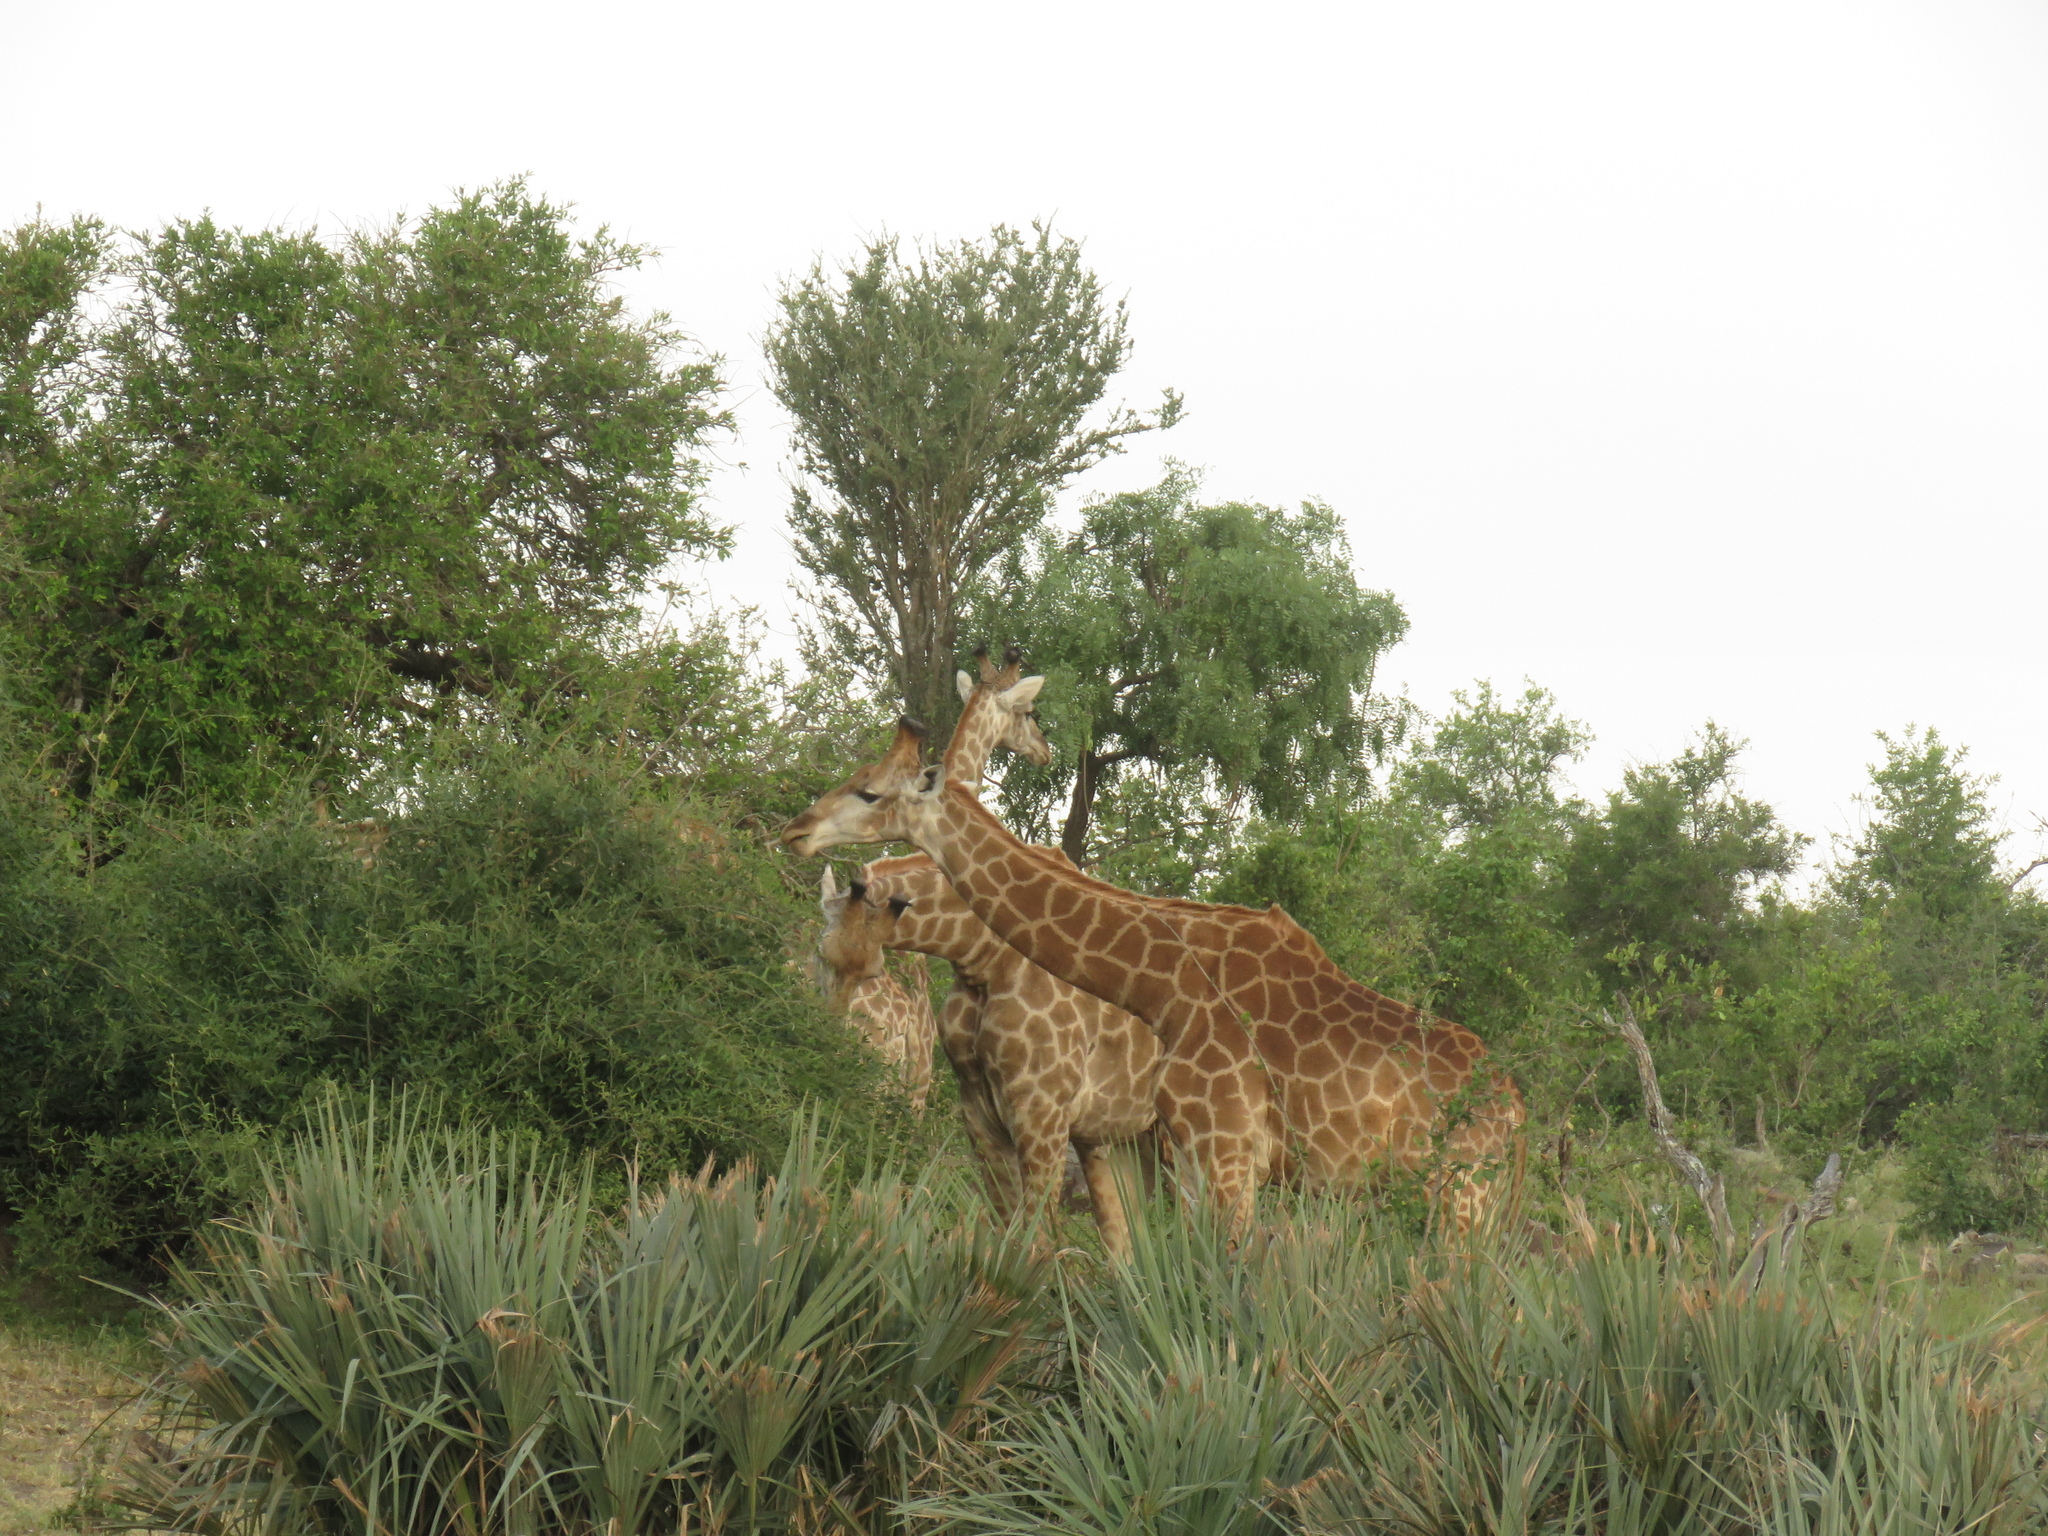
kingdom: Animalia
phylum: Chordata
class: Mammalia
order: Artiodactyla
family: Giraffidae
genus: Giraffa
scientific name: Giraffa giraffa
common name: Southern giraffe
